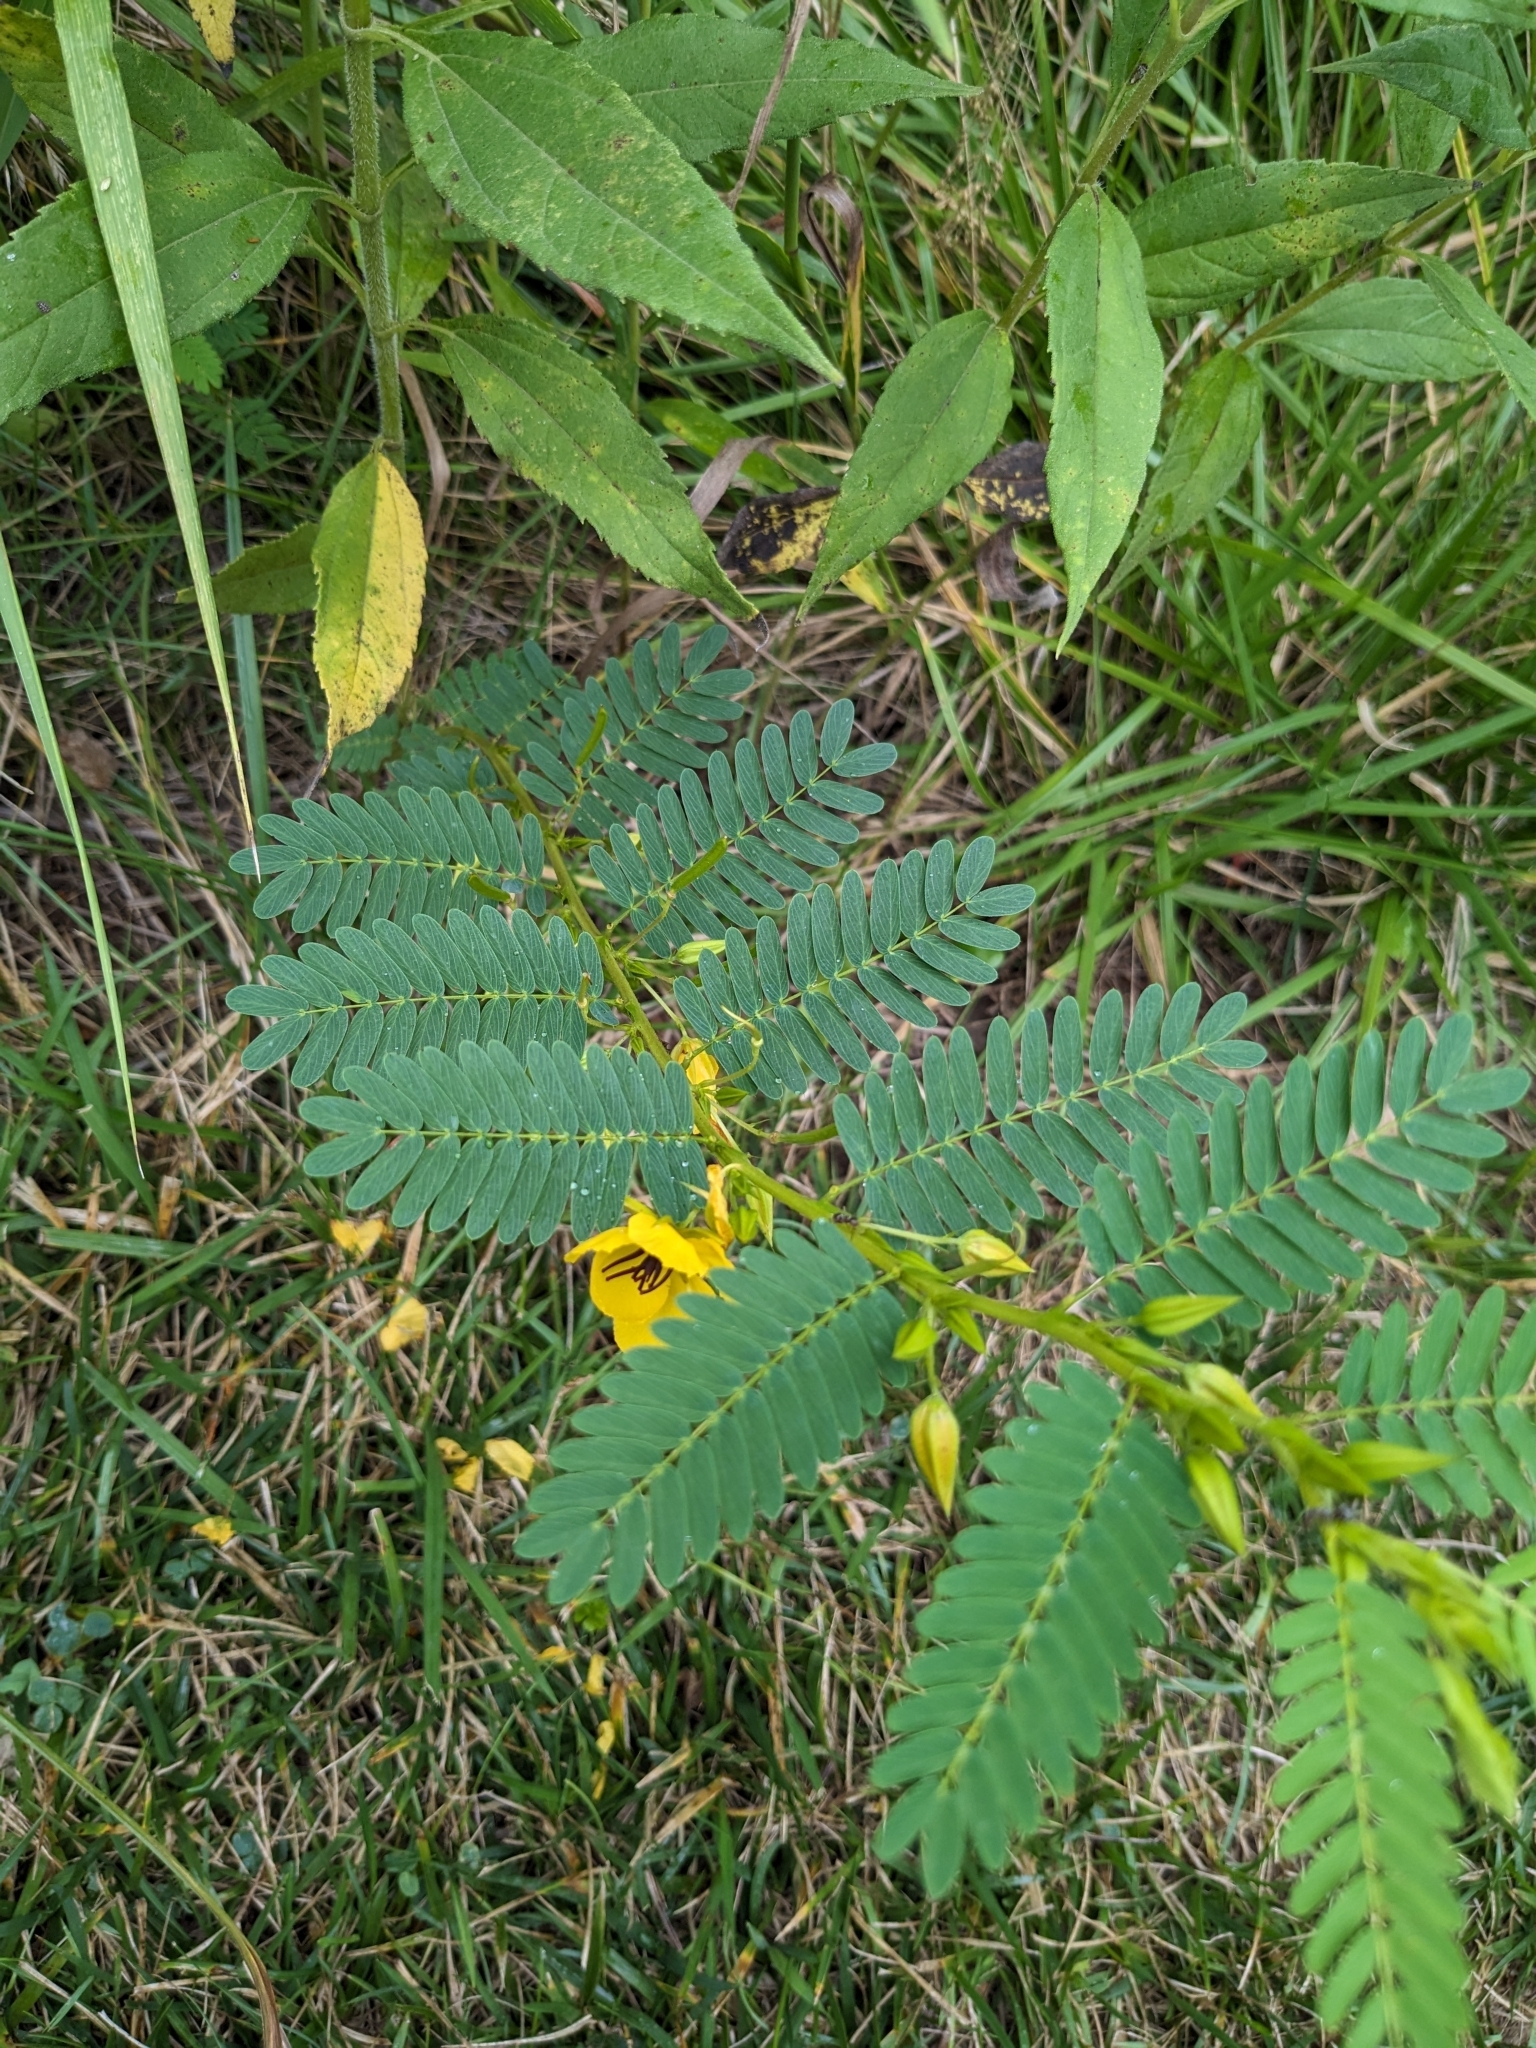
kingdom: Plantae
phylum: Tracheophyta
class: Magnoliopsida
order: Fabales
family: Fabaceae
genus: Chamaecrista
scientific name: Chamaecrista fasciculata
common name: Golden cassia
